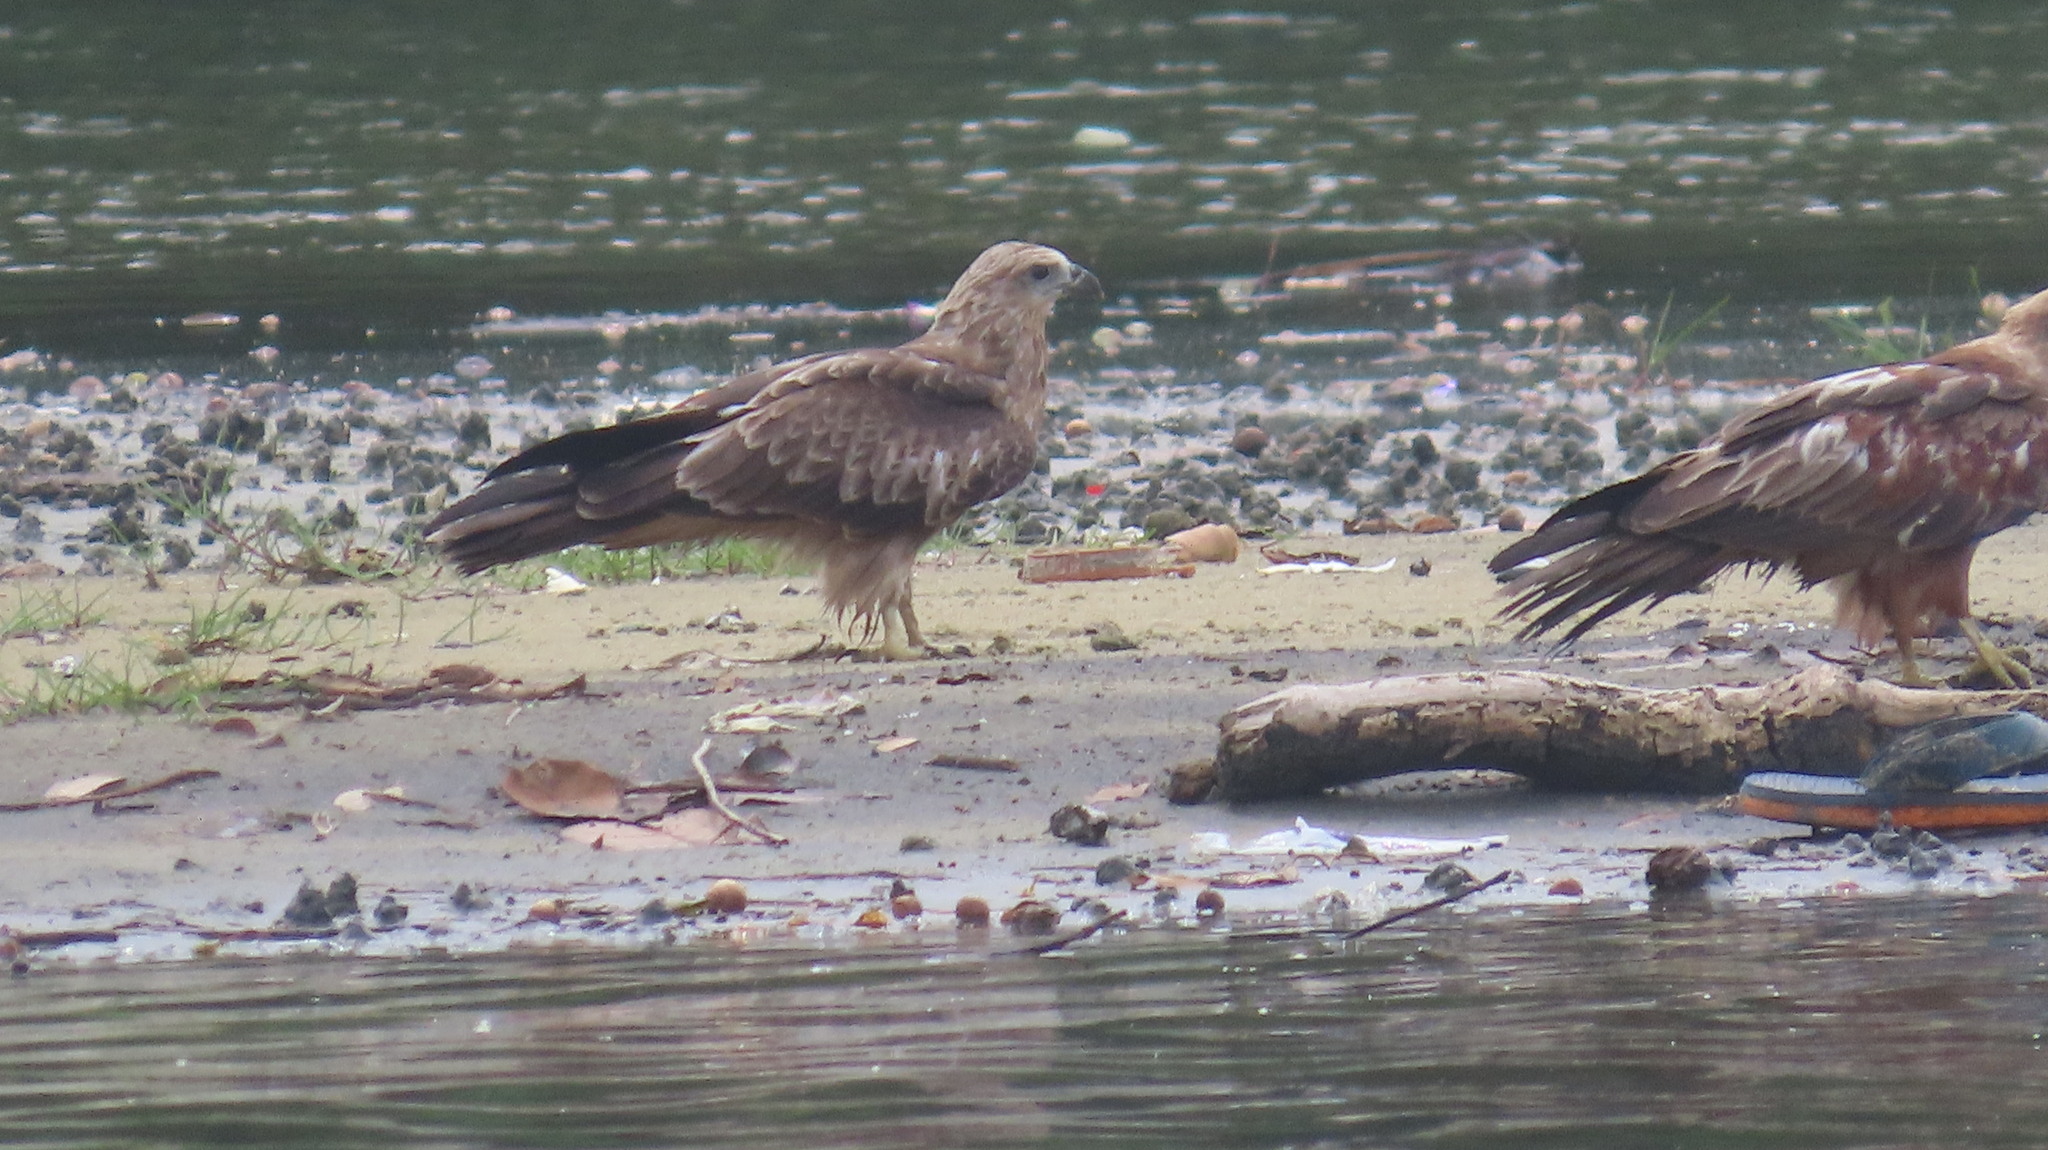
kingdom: Animalia
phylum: Chordata
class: Aves
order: Accipitriformes
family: Accipitridae
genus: Haliastur
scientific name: Haliastur indus
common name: Brahminy kite
